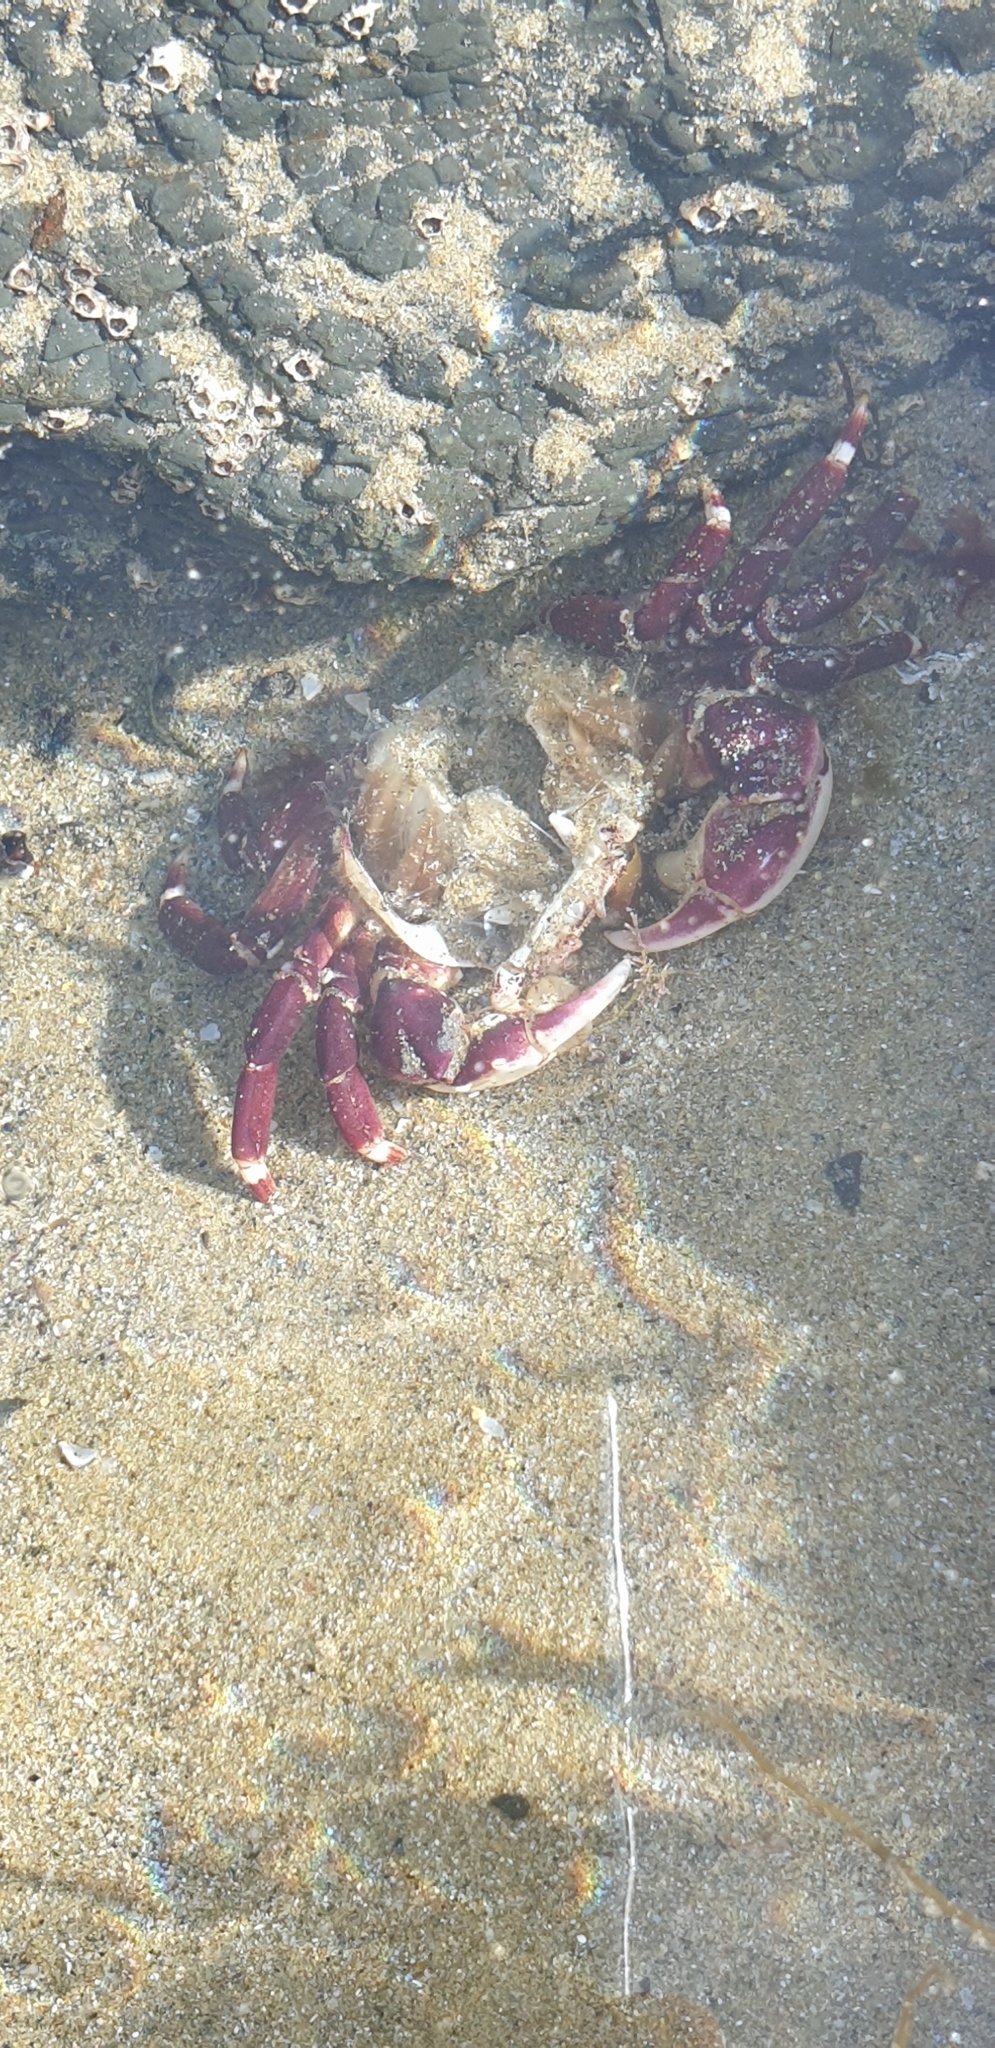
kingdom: Animalia
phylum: Arthropoda
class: Malacostraca
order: Decapoda
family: Varunidae
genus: Hemigrapsus
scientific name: Hemigrapsus sexdentatus
